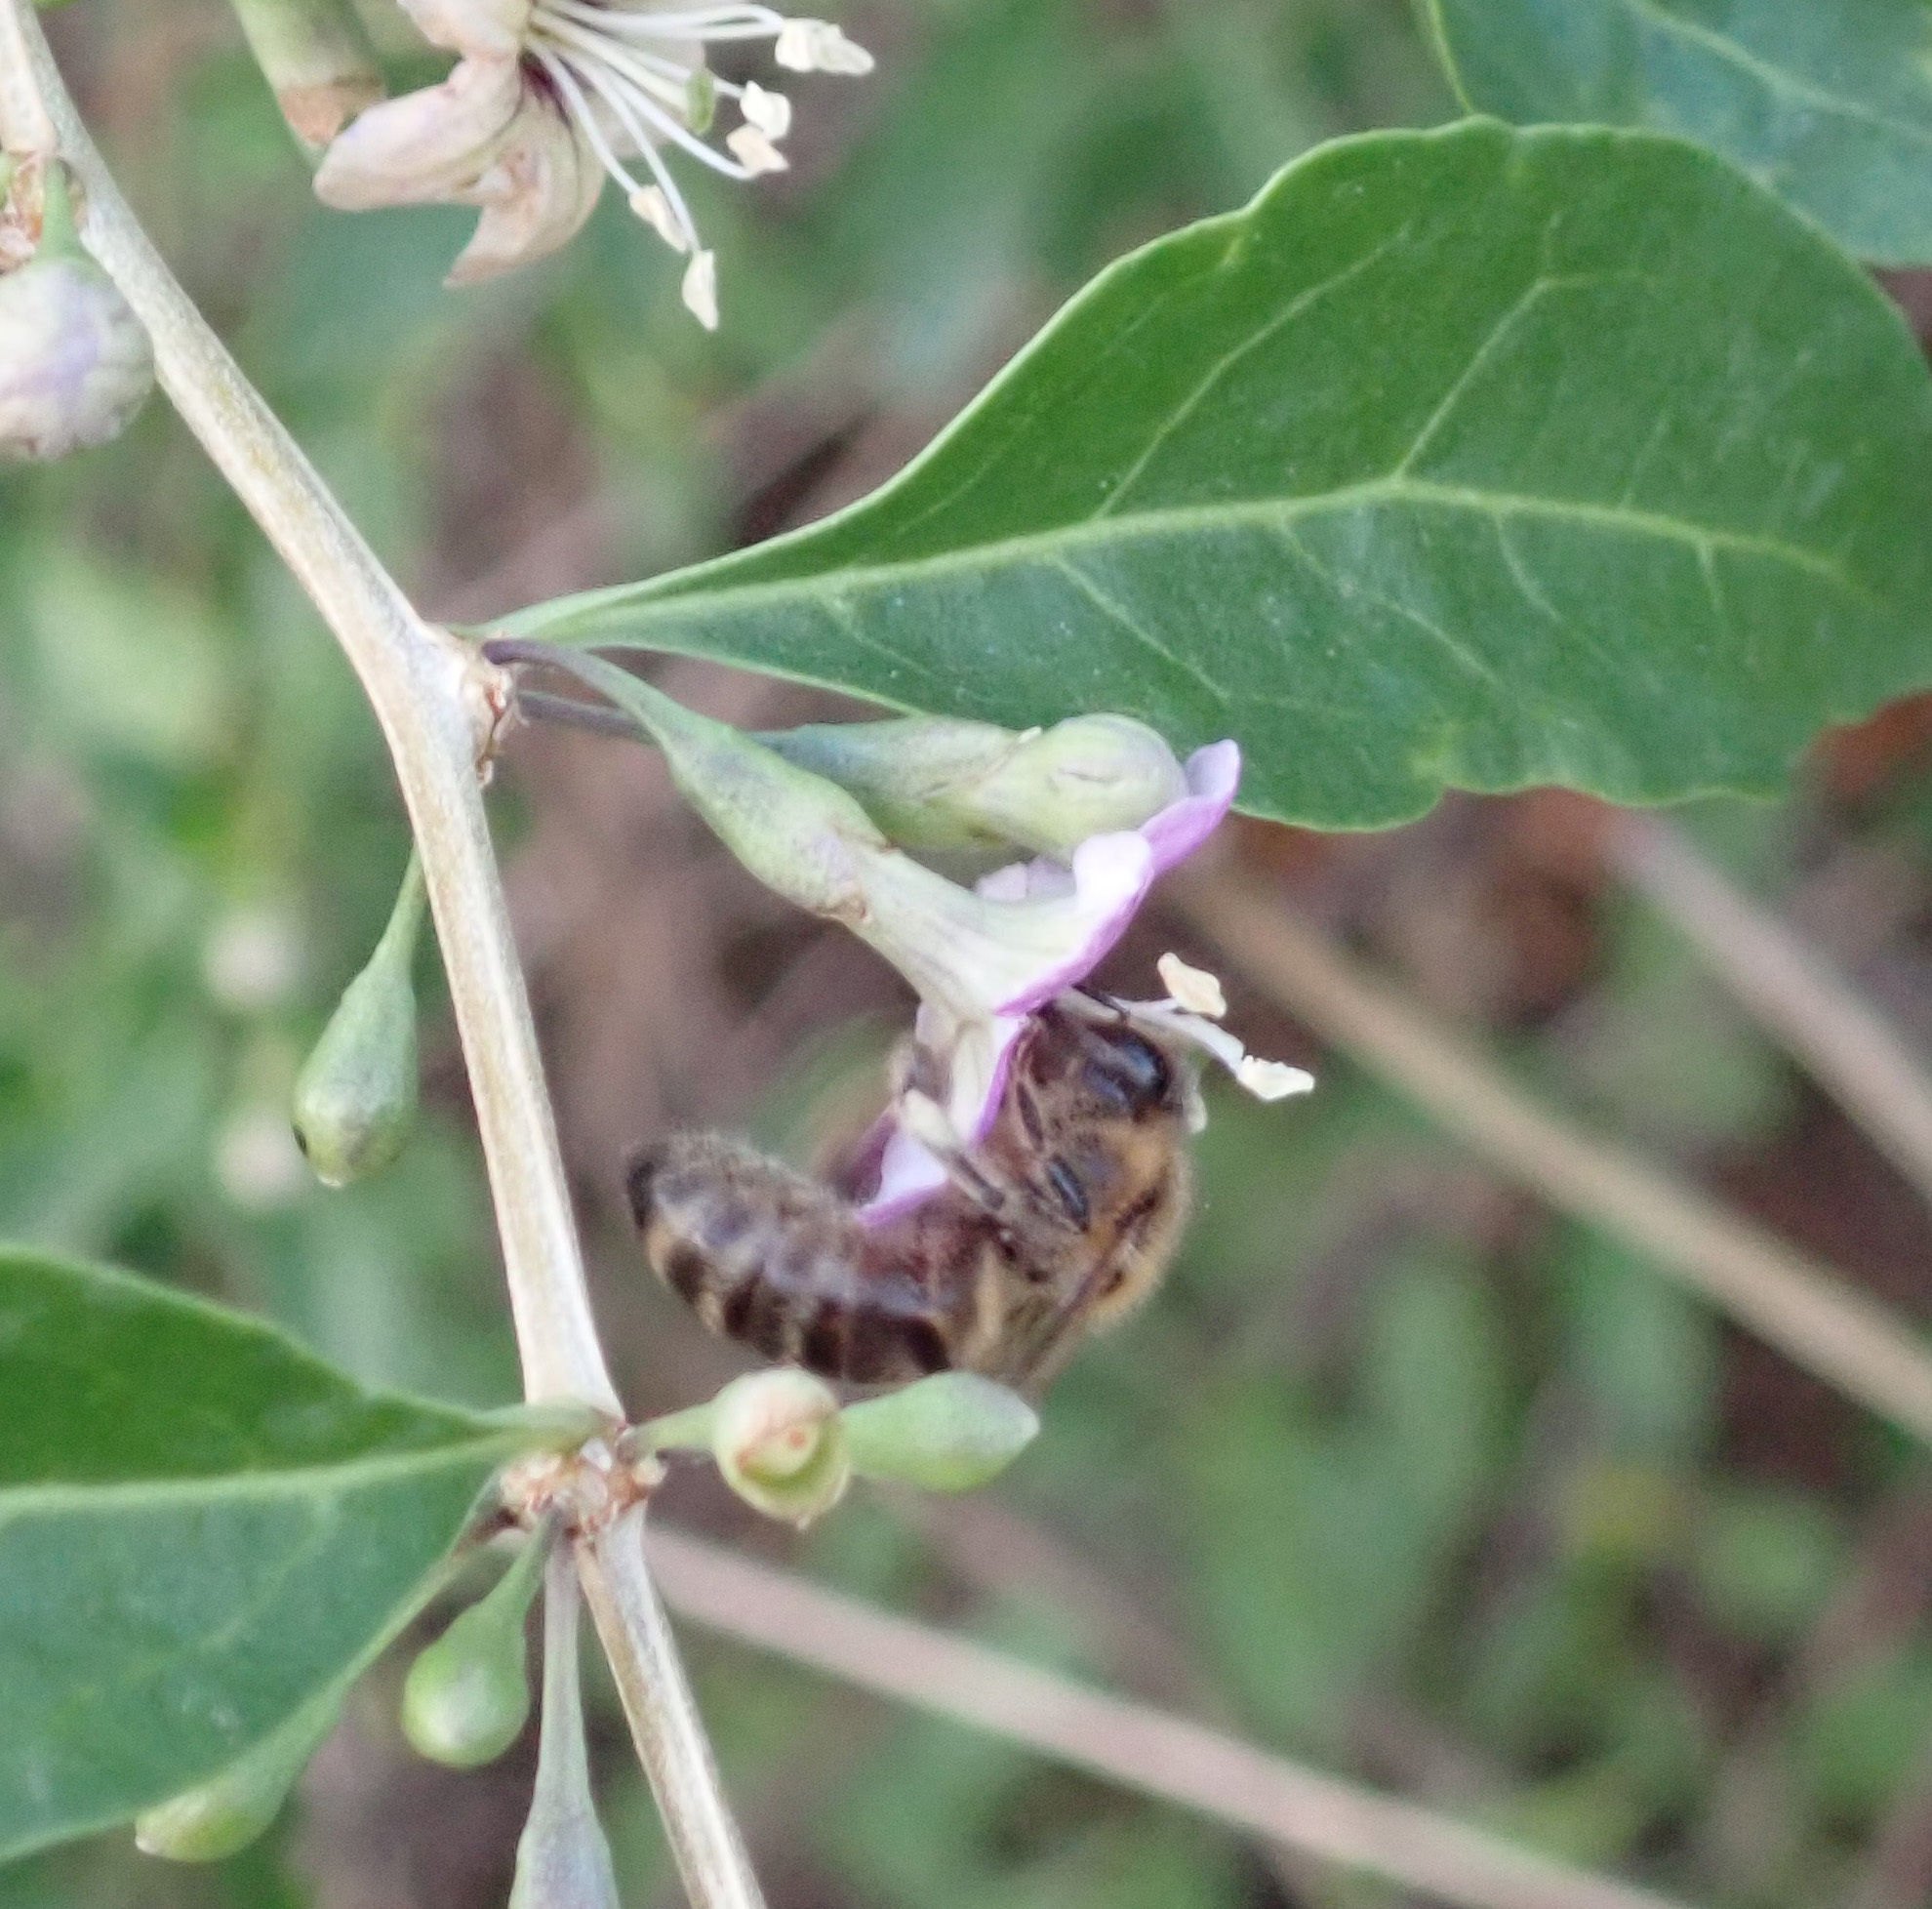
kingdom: Animalia
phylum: Arthropoda
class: Insecta
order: Hymenoptera
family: Apidae
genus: Apis
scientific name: Apis mellifera
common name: Honey bee
